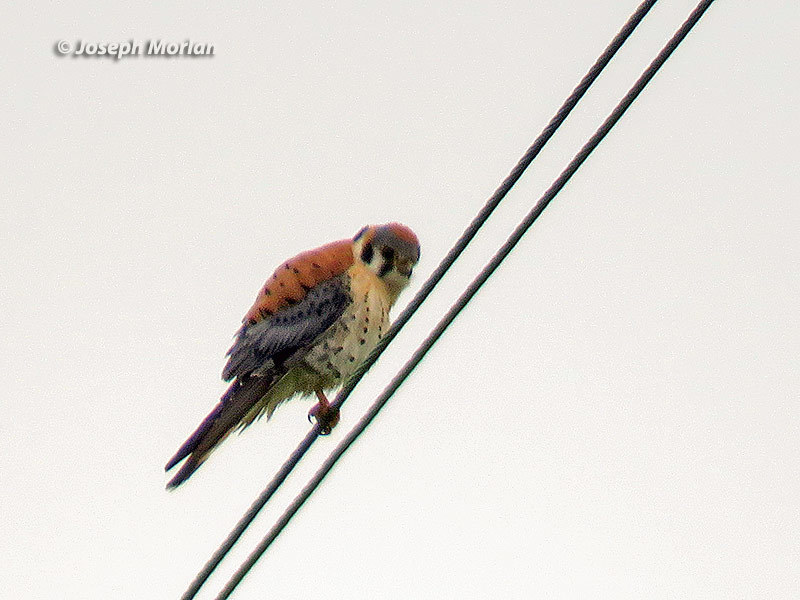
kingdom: Animalia
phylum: Chordata
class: Aves
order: Falconiformes
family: Falconidae
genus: Falco
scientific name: Falco sparverius
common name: American kestrel
